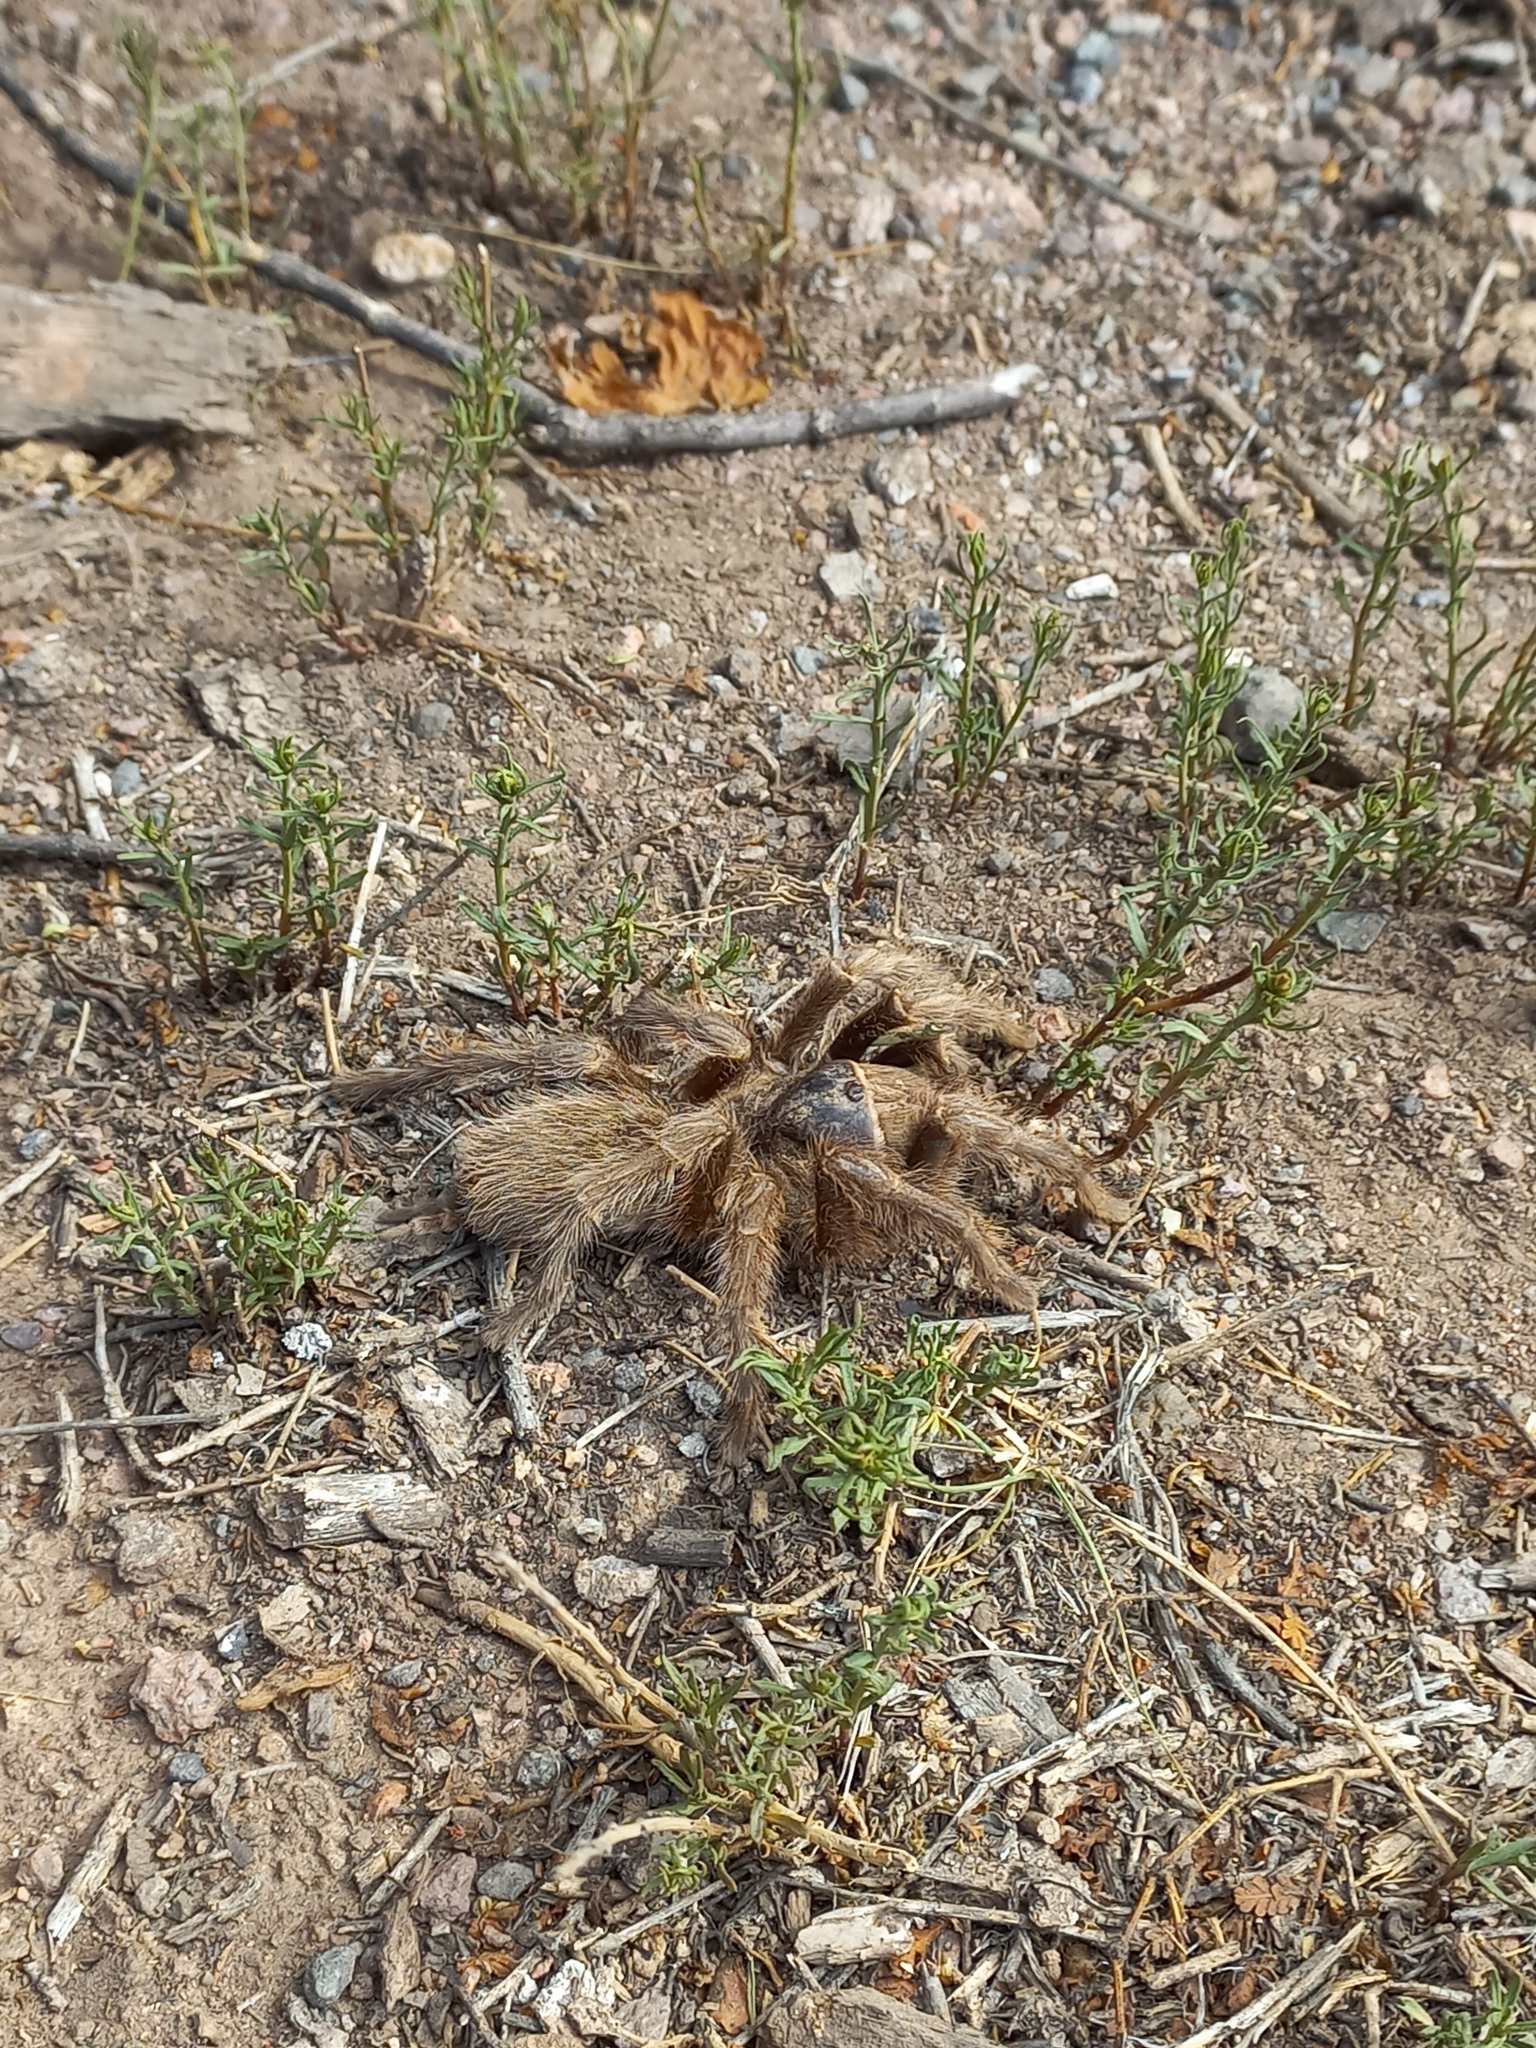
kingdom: Animalia
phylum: Arthropoda
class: Arachnida
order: Araneae
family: Theraphosidae
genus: Grammostola
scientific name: Grammostola inermis
